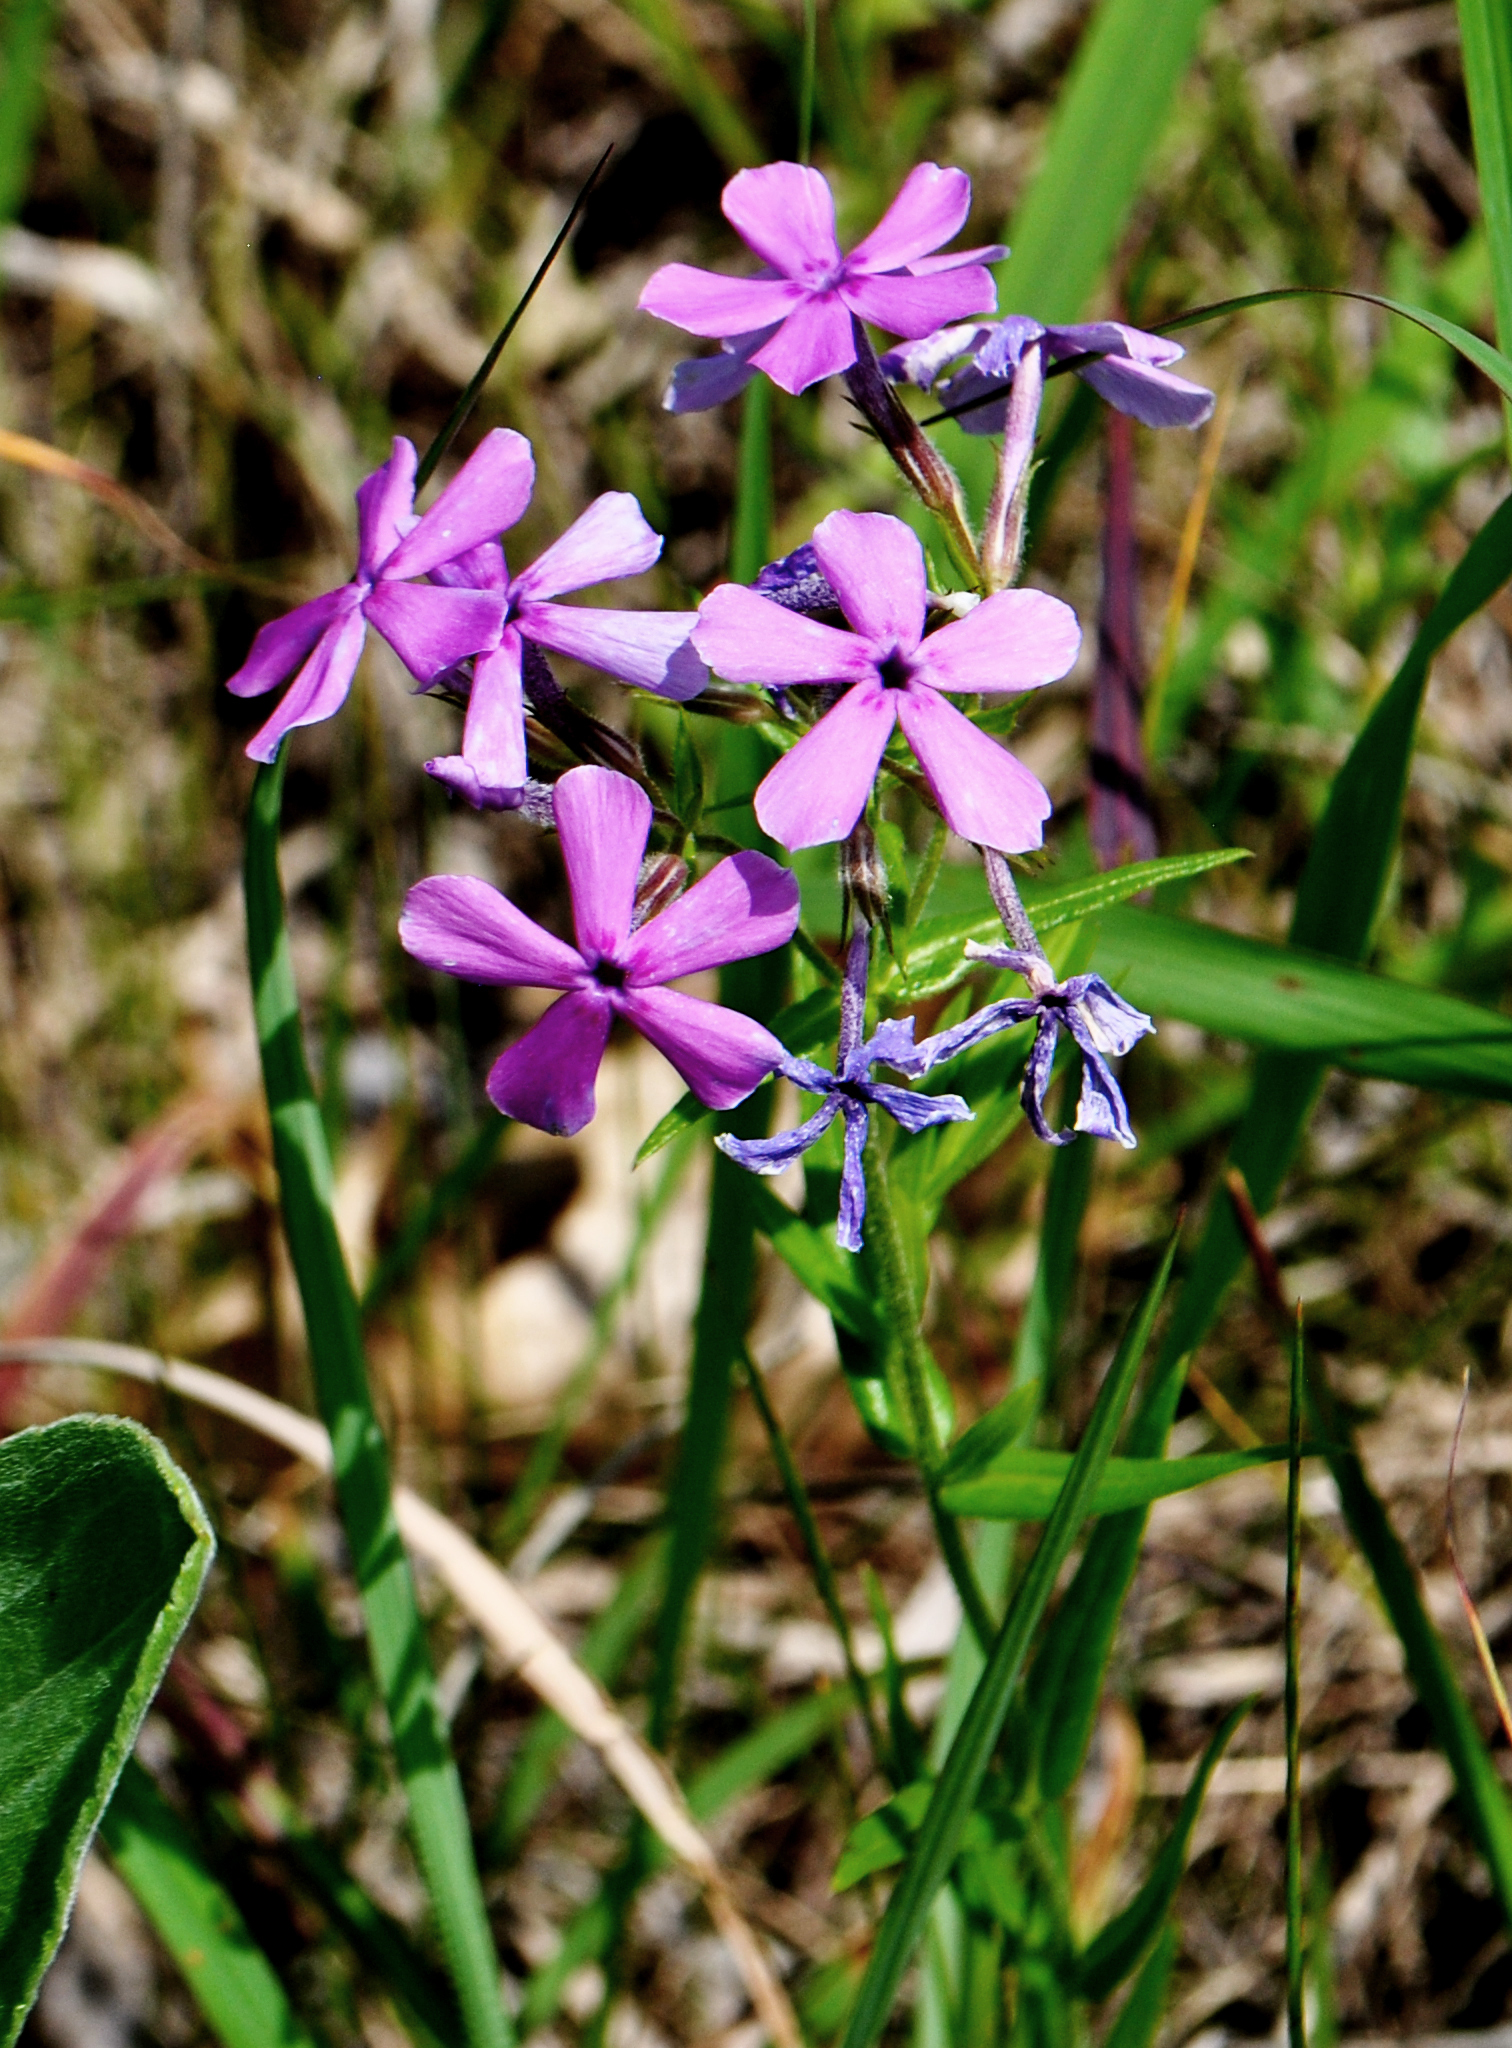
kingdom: Plantae
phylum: Tracheophyta
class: Magnoliopsida
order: Ericales
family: Polemoniaceae
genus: Phlox
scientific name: Phlox pilosa
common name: Prairie phlox
